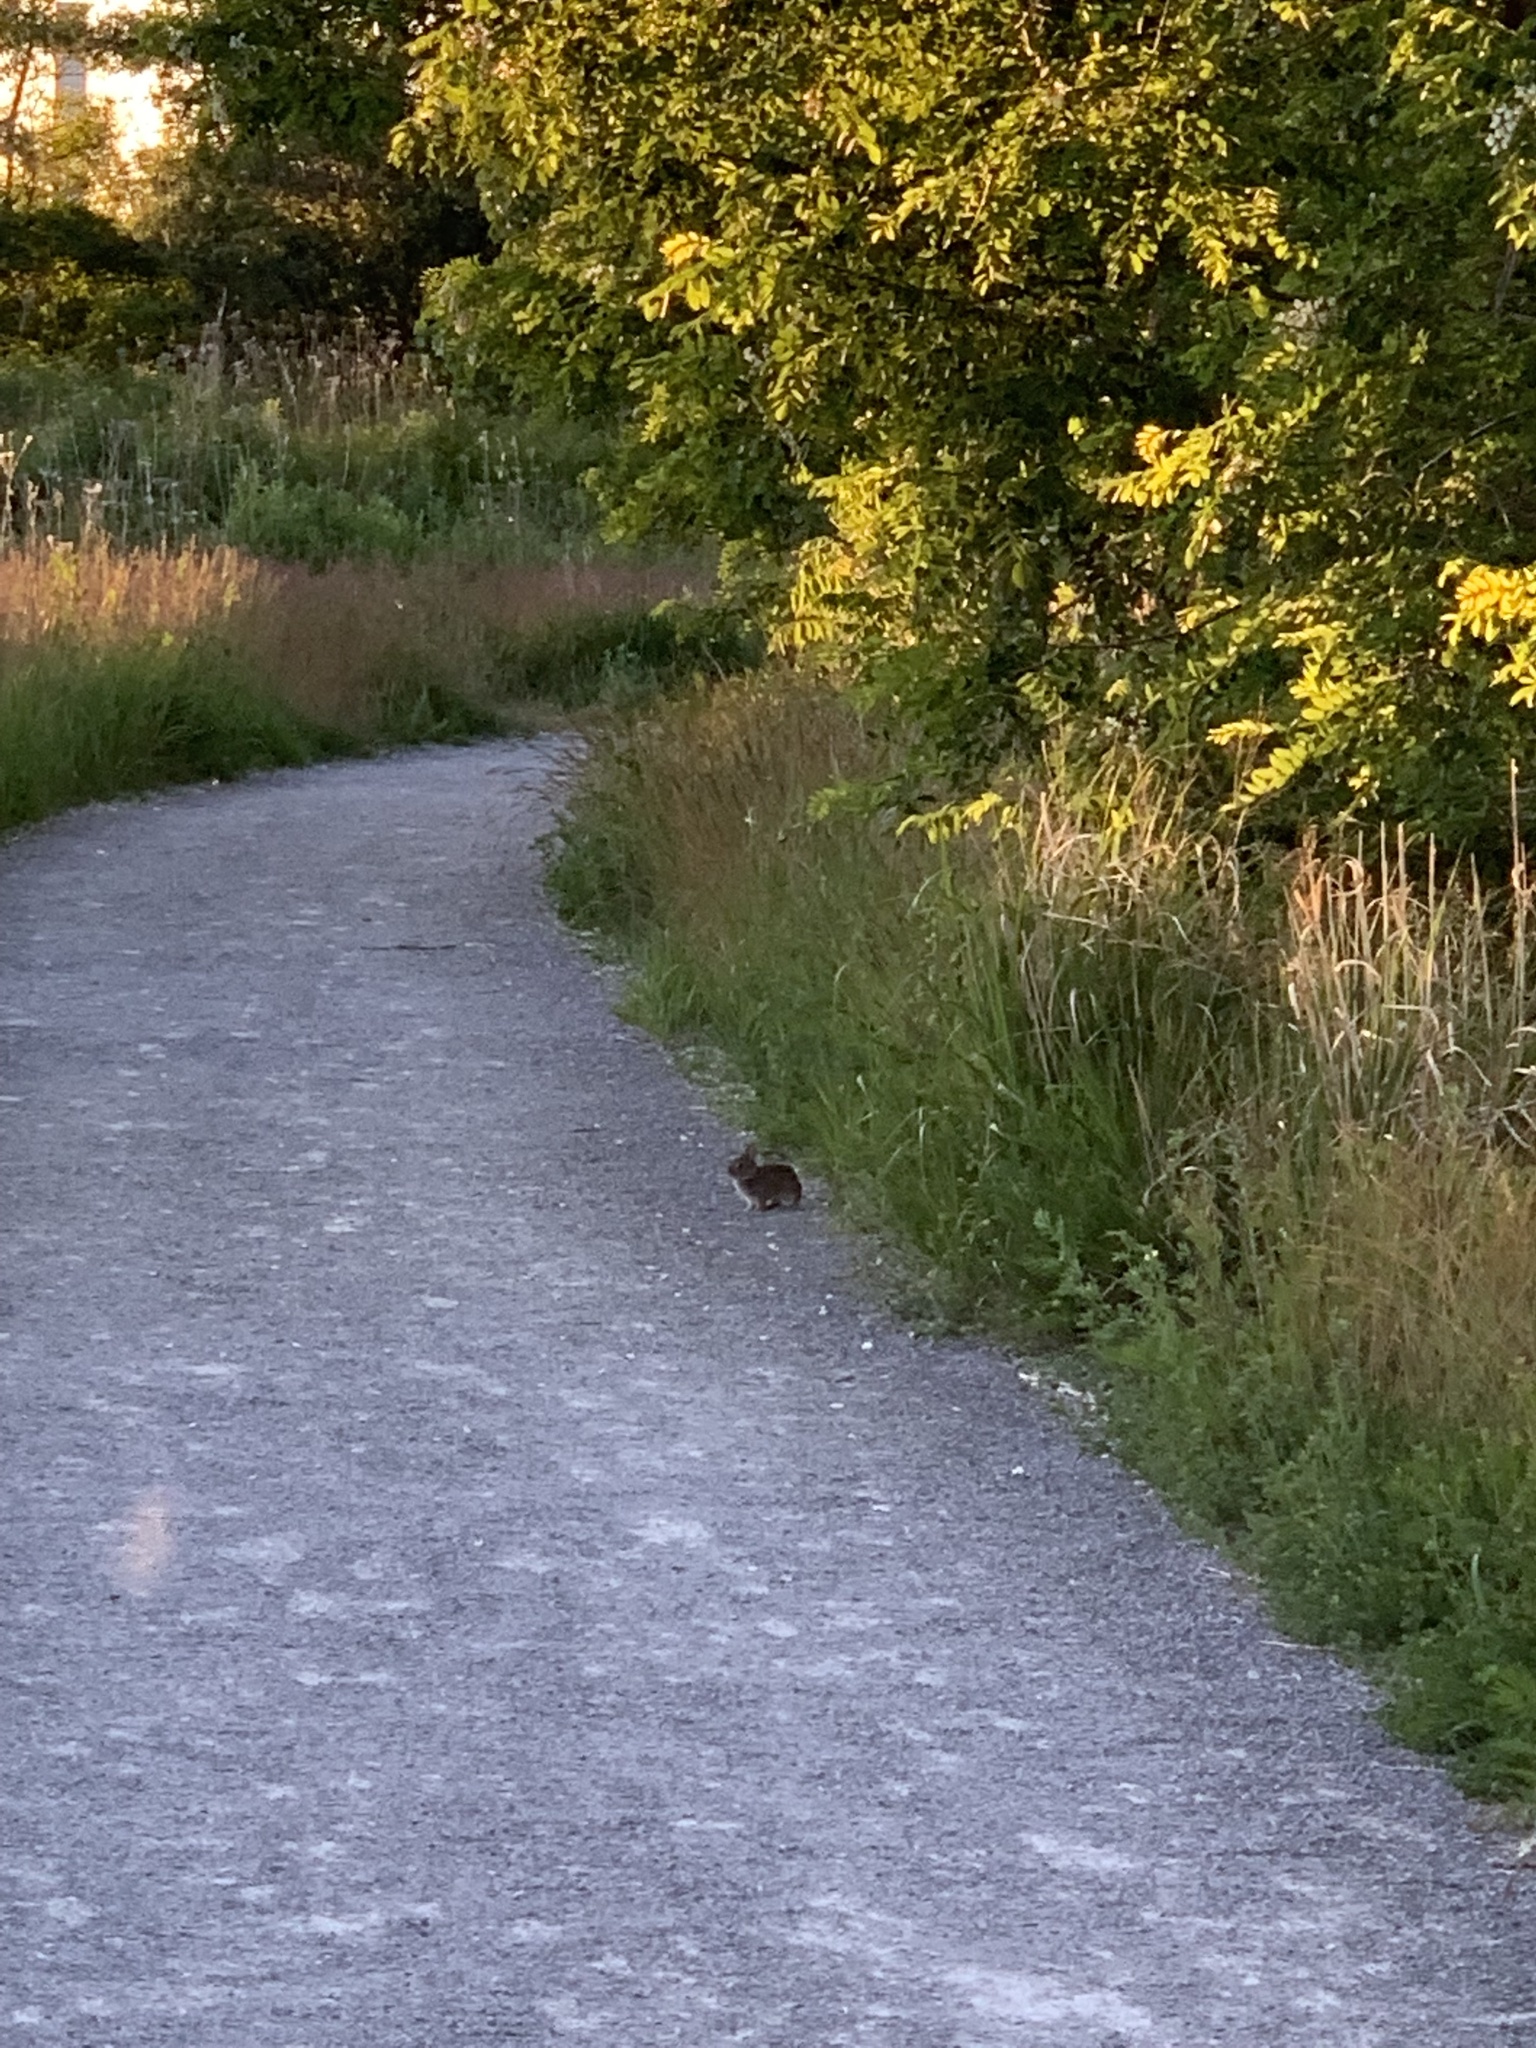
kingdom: Animalia
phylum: Chordata
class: Mammalia
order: Lagomorpha
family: Leporidae
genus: Sylvilagus
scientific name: Sylvilagus floridanus
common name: Eastern cottontail
